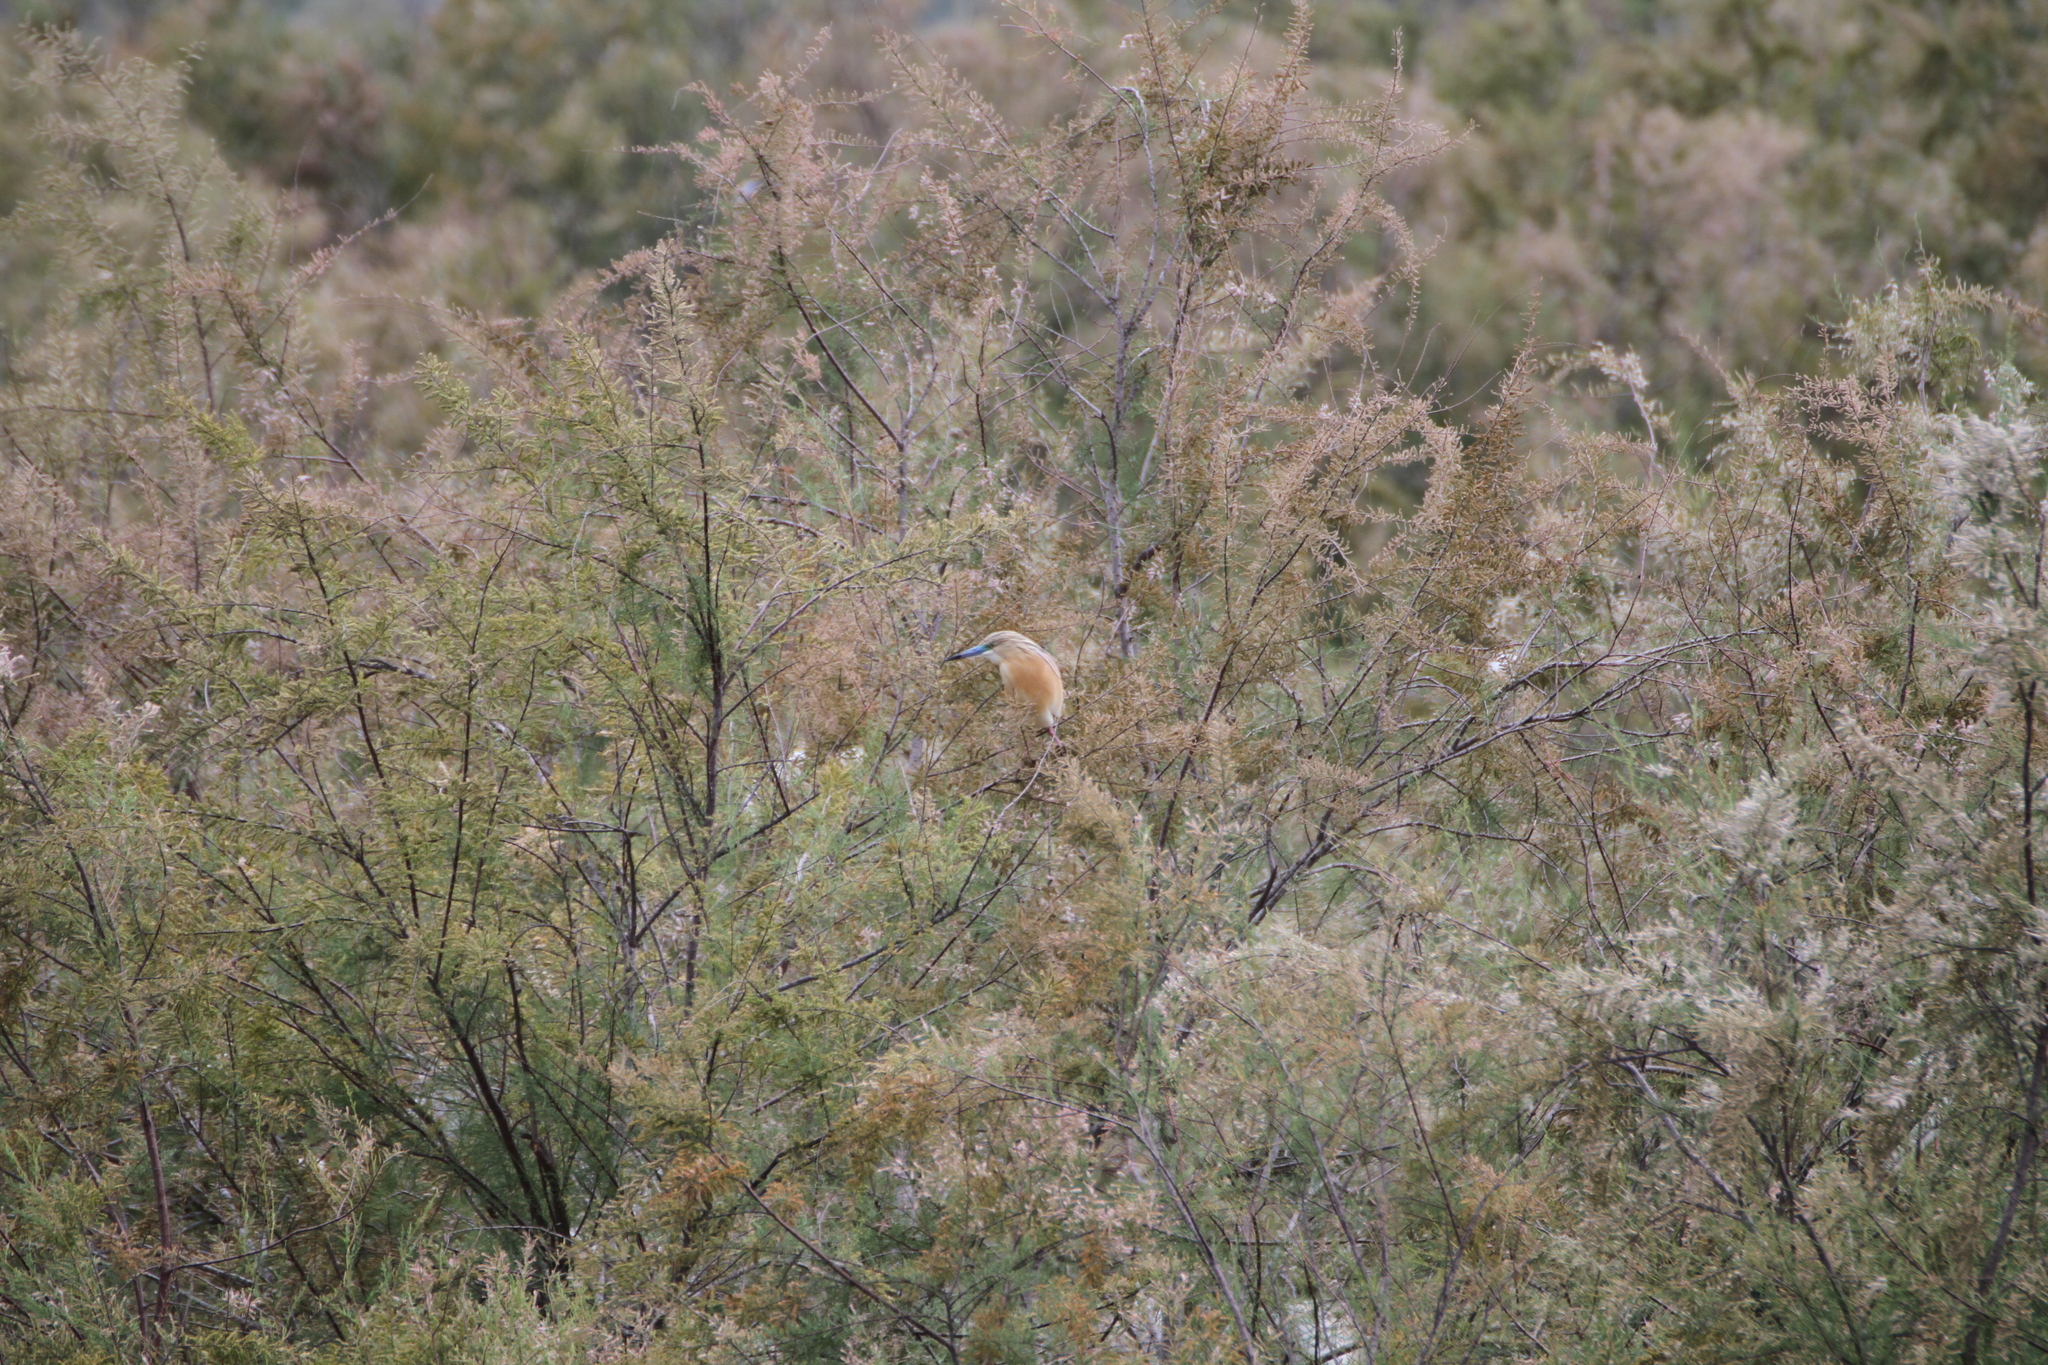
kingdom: Animalia
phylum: Chordata
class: Aves
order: Pelecaniformes
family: Ardeidae
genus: Ardeola
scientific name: Ardeola ralloides
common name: Squacco heron
